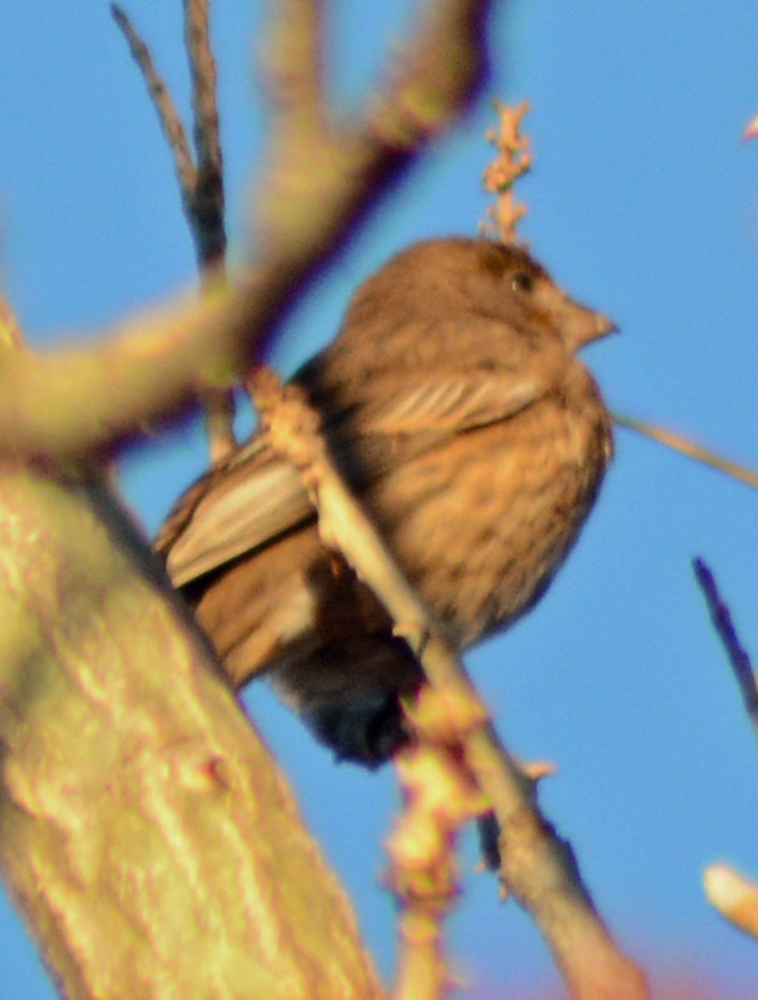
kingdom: Animalia
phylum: Chordata
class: Aves
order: Passeriformes
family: Fringillidae
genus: Haemorhous
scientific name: Haemorhous mexicanus
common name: House finch
